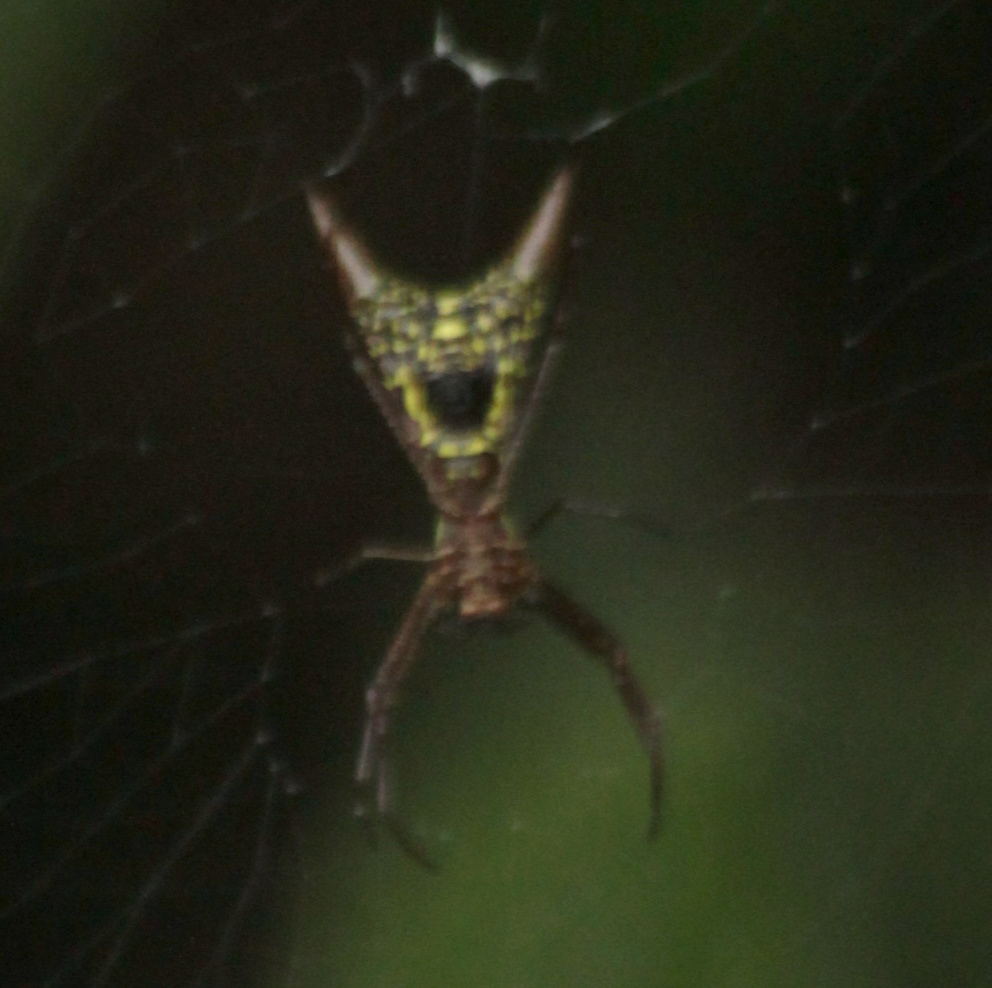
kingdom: Animalia
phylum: Arthropoda
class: Arachnida
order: Araneae
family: Araneidae
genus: Micrathena
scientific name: Micrathena sexspinosa
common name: Orb weavers
